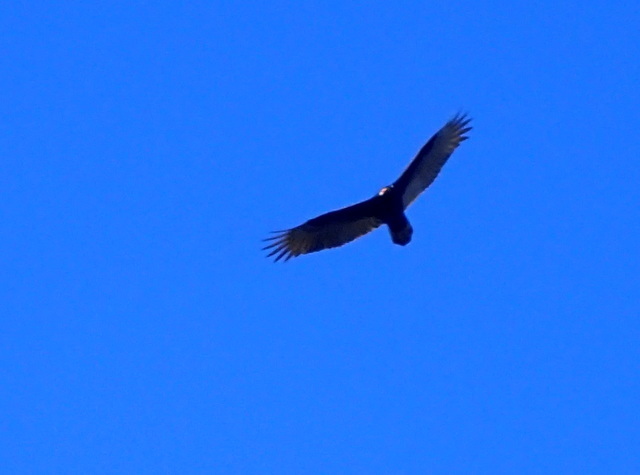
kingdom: Animalia
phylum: Chordata
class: Aves
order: Accipitriformes
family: Cathartidae
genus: Cathartes
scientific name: Cathartes aura
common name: Turkey vulture
